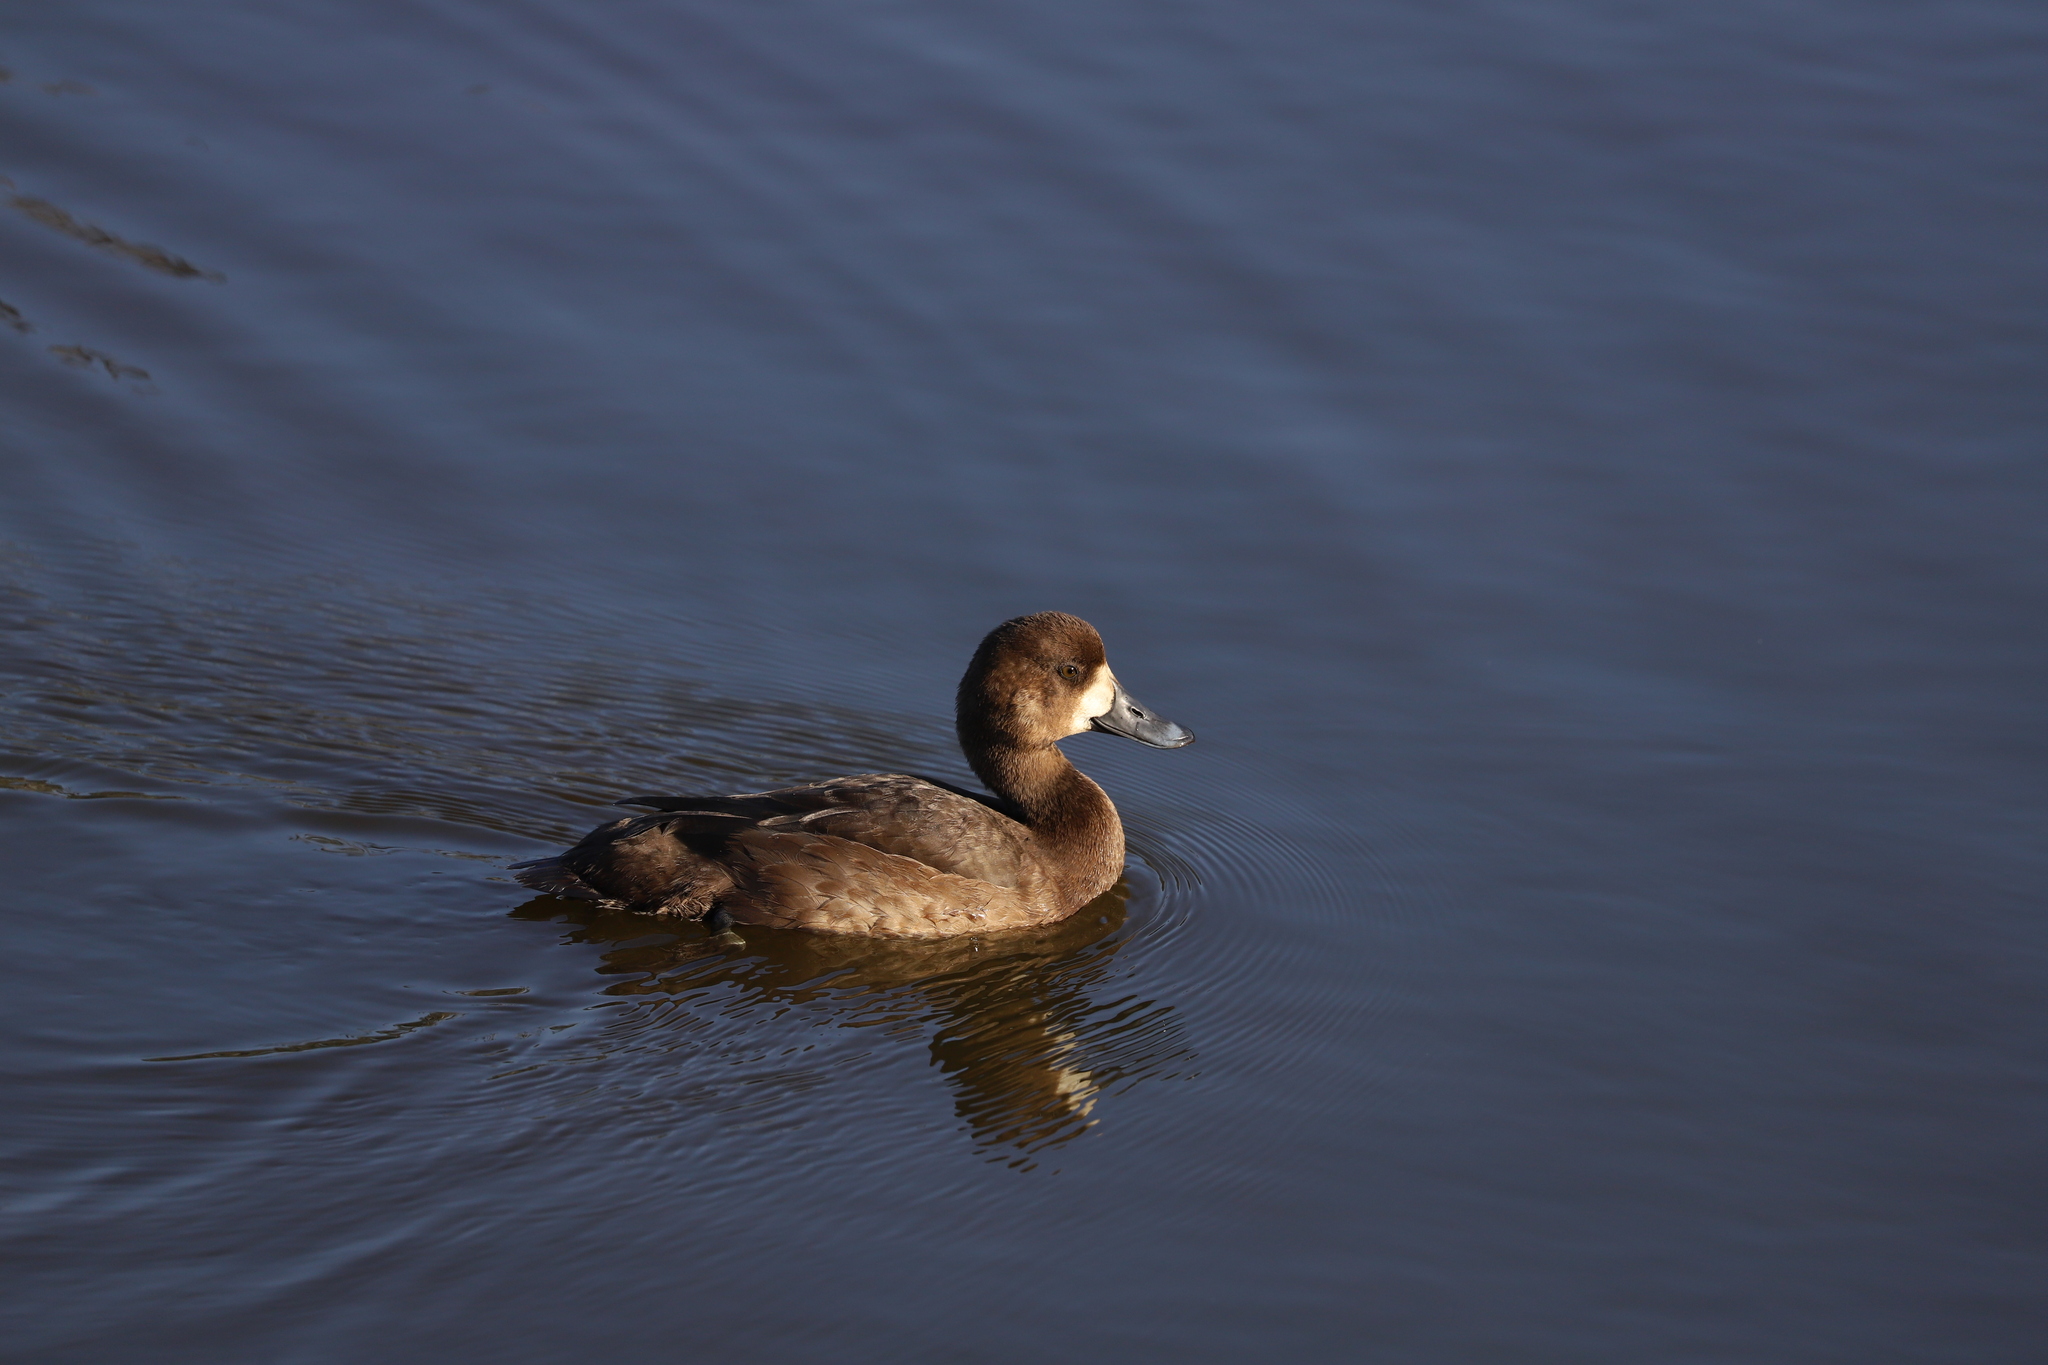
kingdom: Animalia
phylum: Chordata
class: Aves
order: Anseriformes
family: Anatidae
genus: Aythya
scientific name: Aythya marila
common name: Greater scaup
